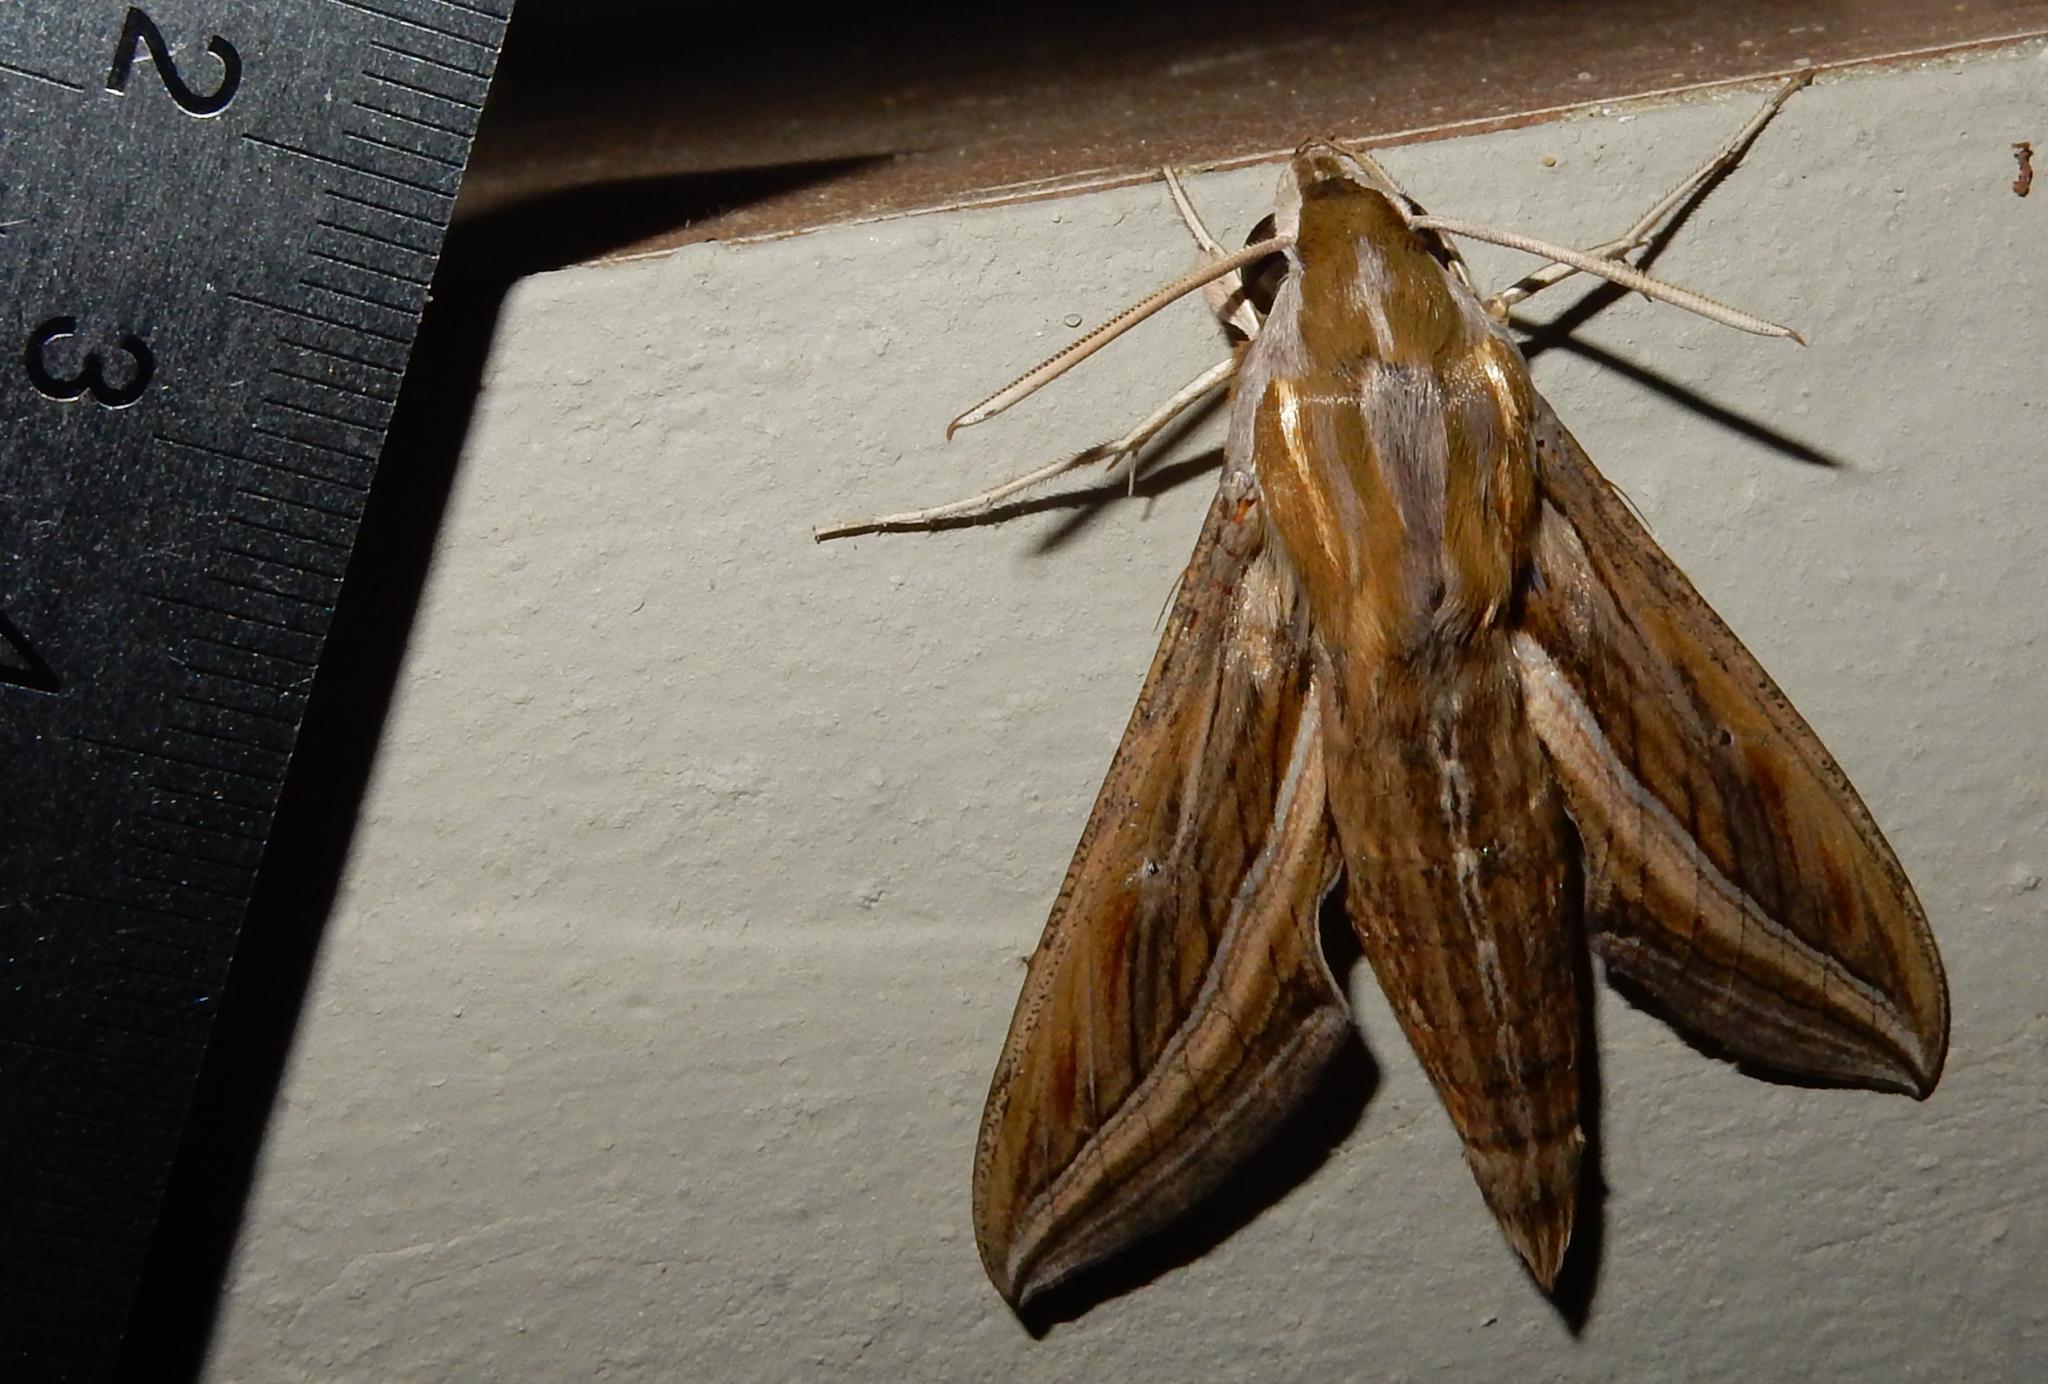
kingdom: Animalia
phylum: Arthropoda
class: Insecta
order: Lepidoptera
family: Sphingidae
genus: Hippotion
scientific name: Hippotion celerio
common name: Silver-striped hawk-moth
